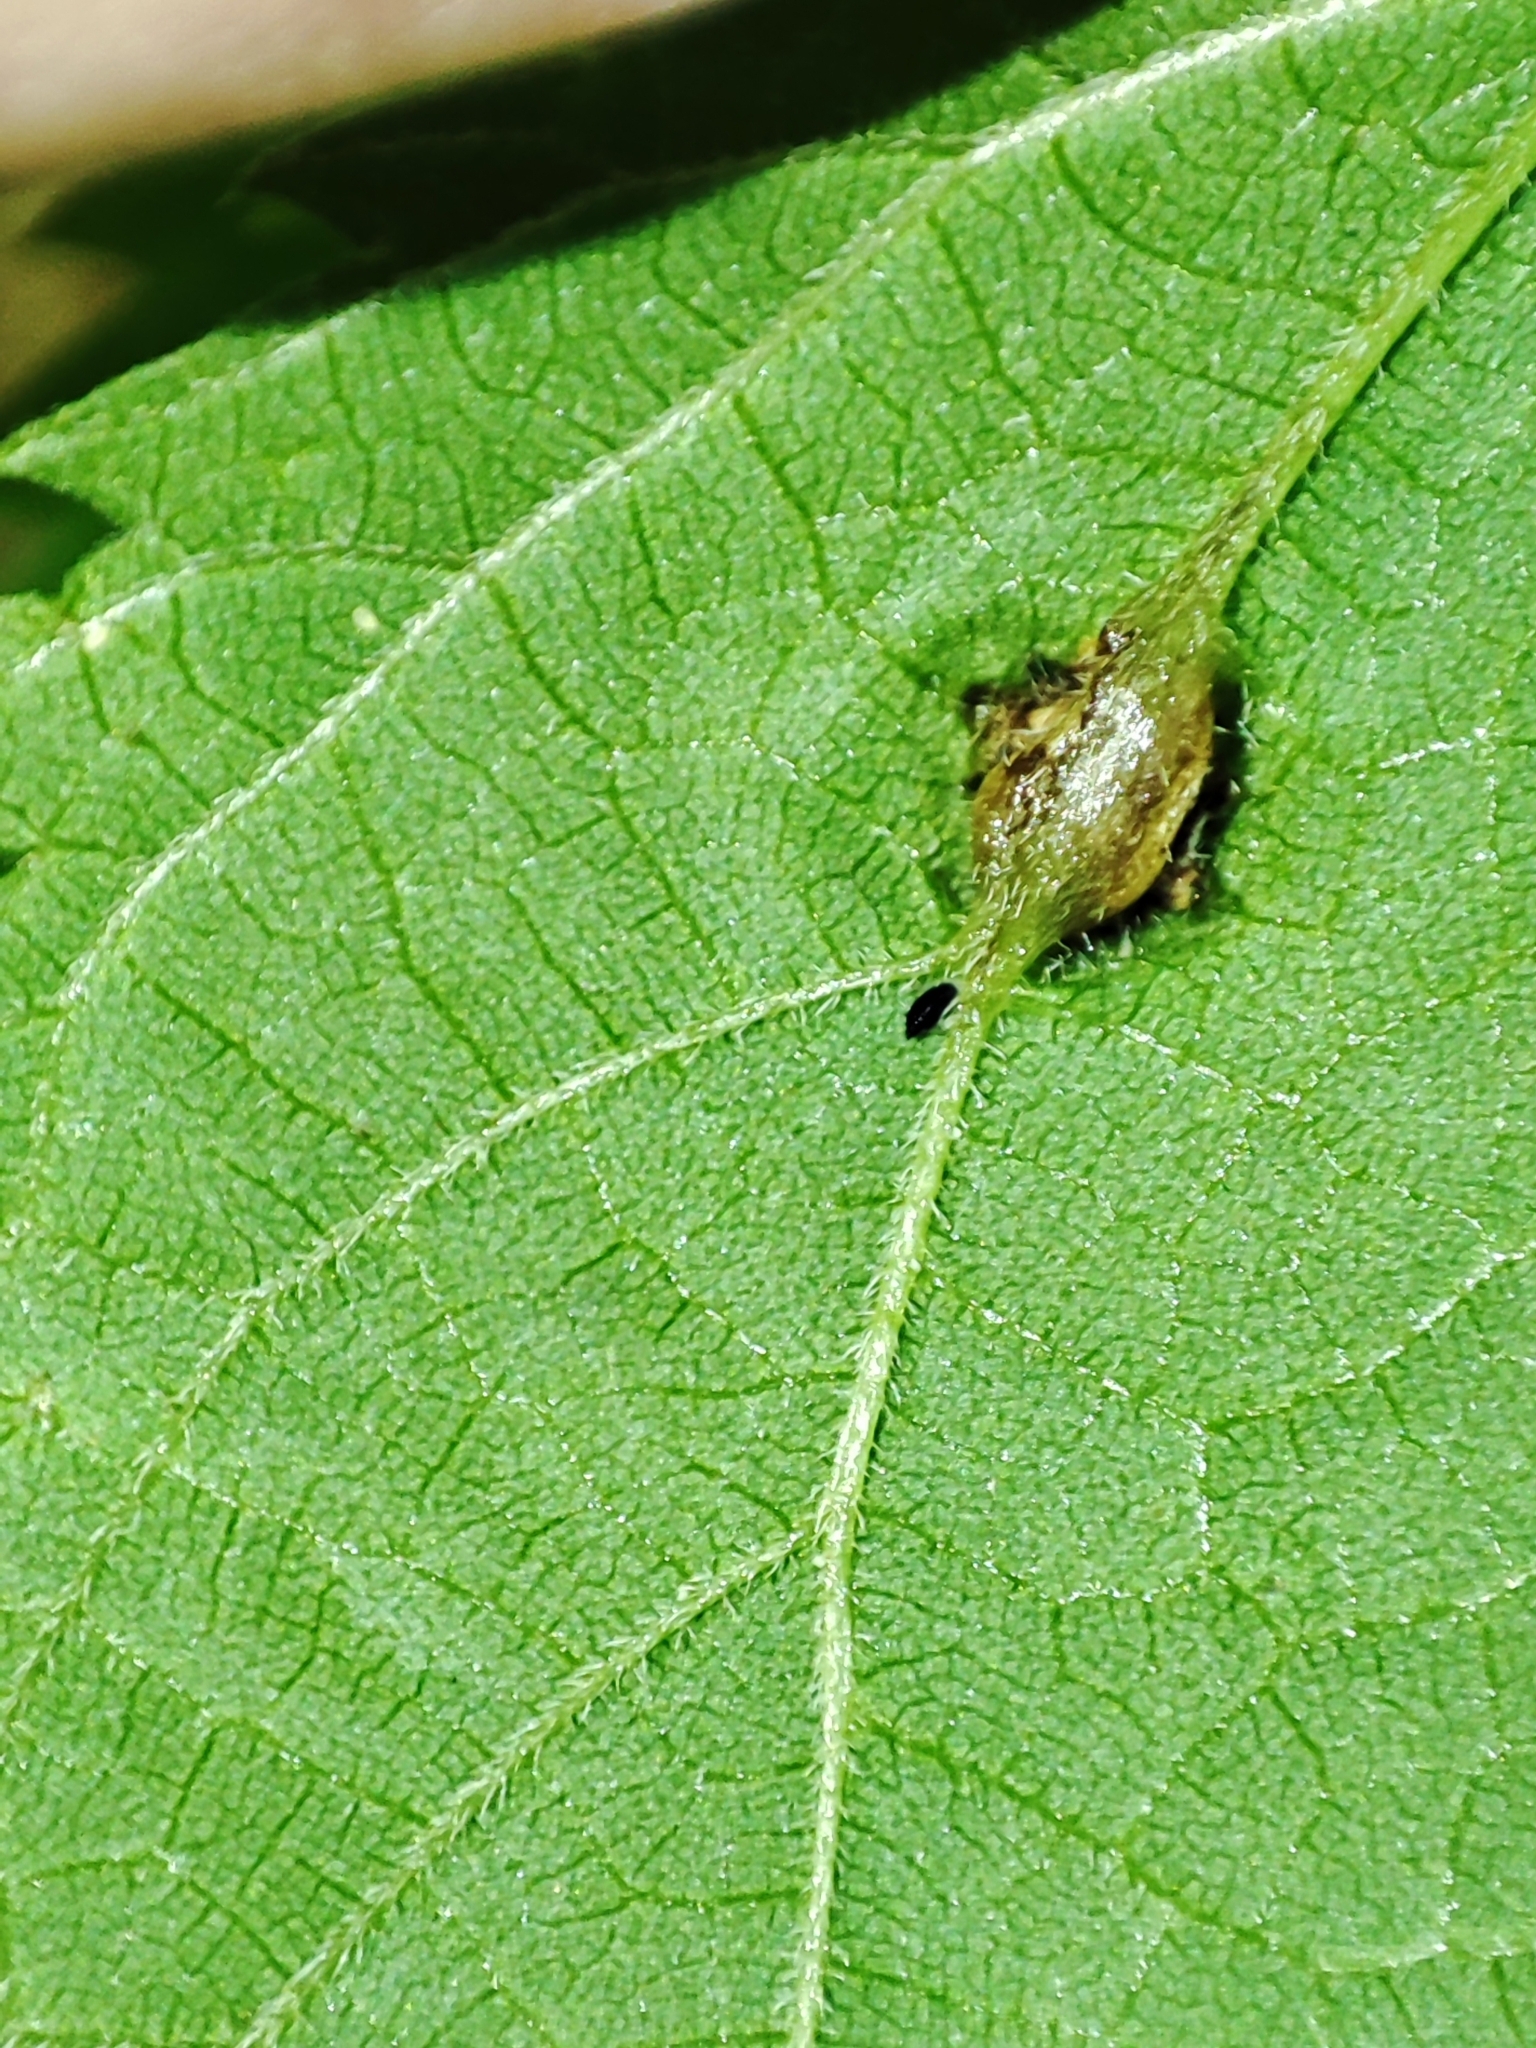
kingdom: Animalia
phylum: Arthropoda
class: Insecta
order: Diptera
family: Cecidomyiidae
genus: Dasineura
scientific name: Dasineura urticae
